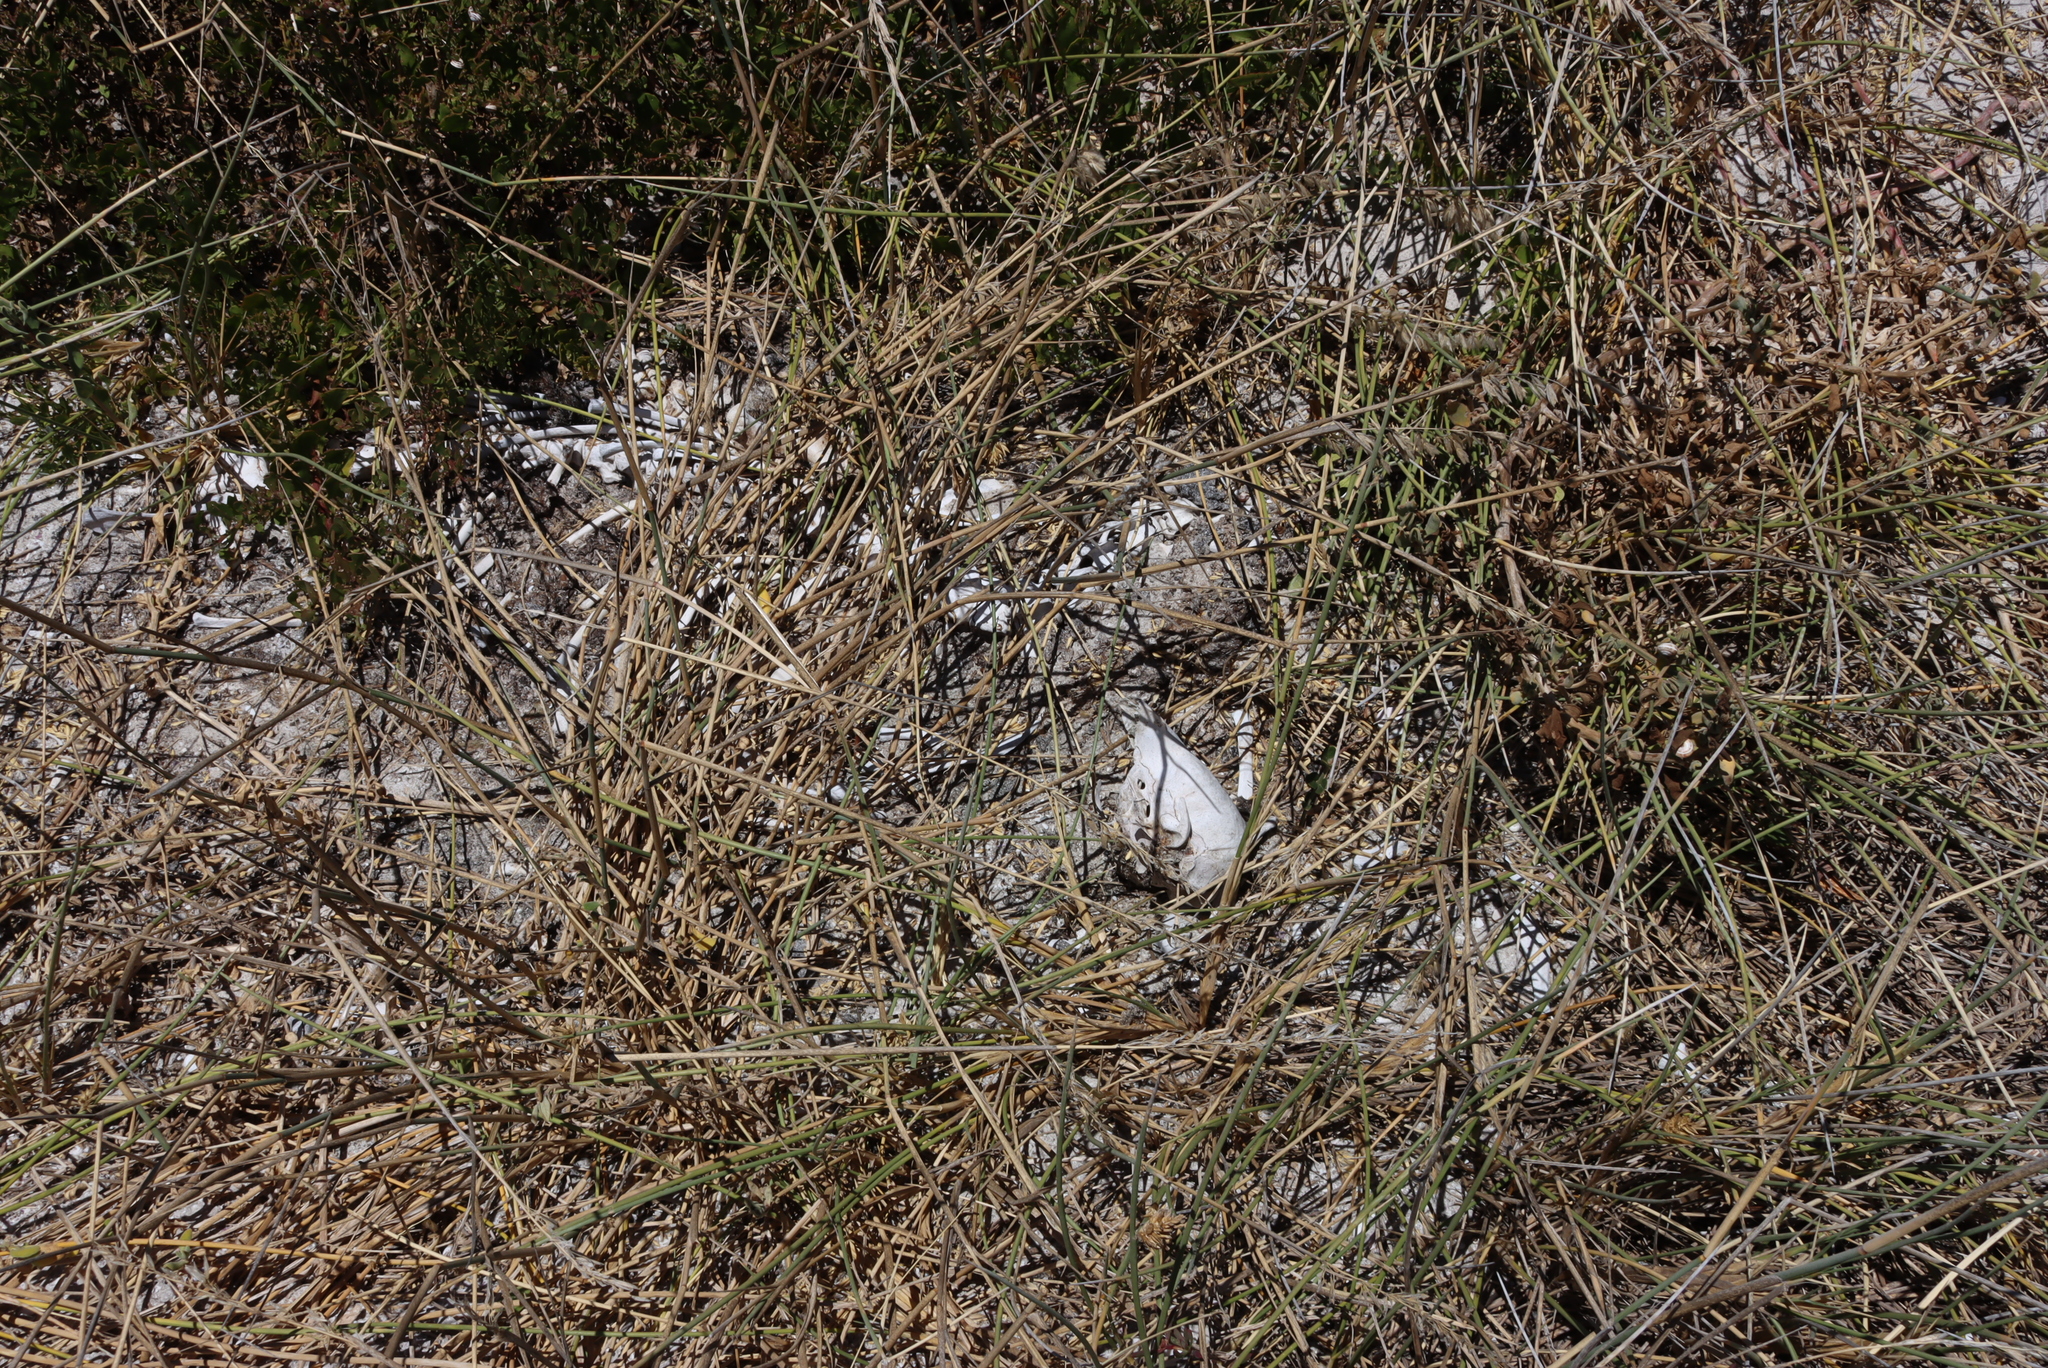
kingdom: Plantae
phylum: Tracheophyta
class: Liliopsida
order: Poales
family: Poaceae
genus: Ehrharta
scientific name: Ehrharta villosa
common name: Pyp grass
